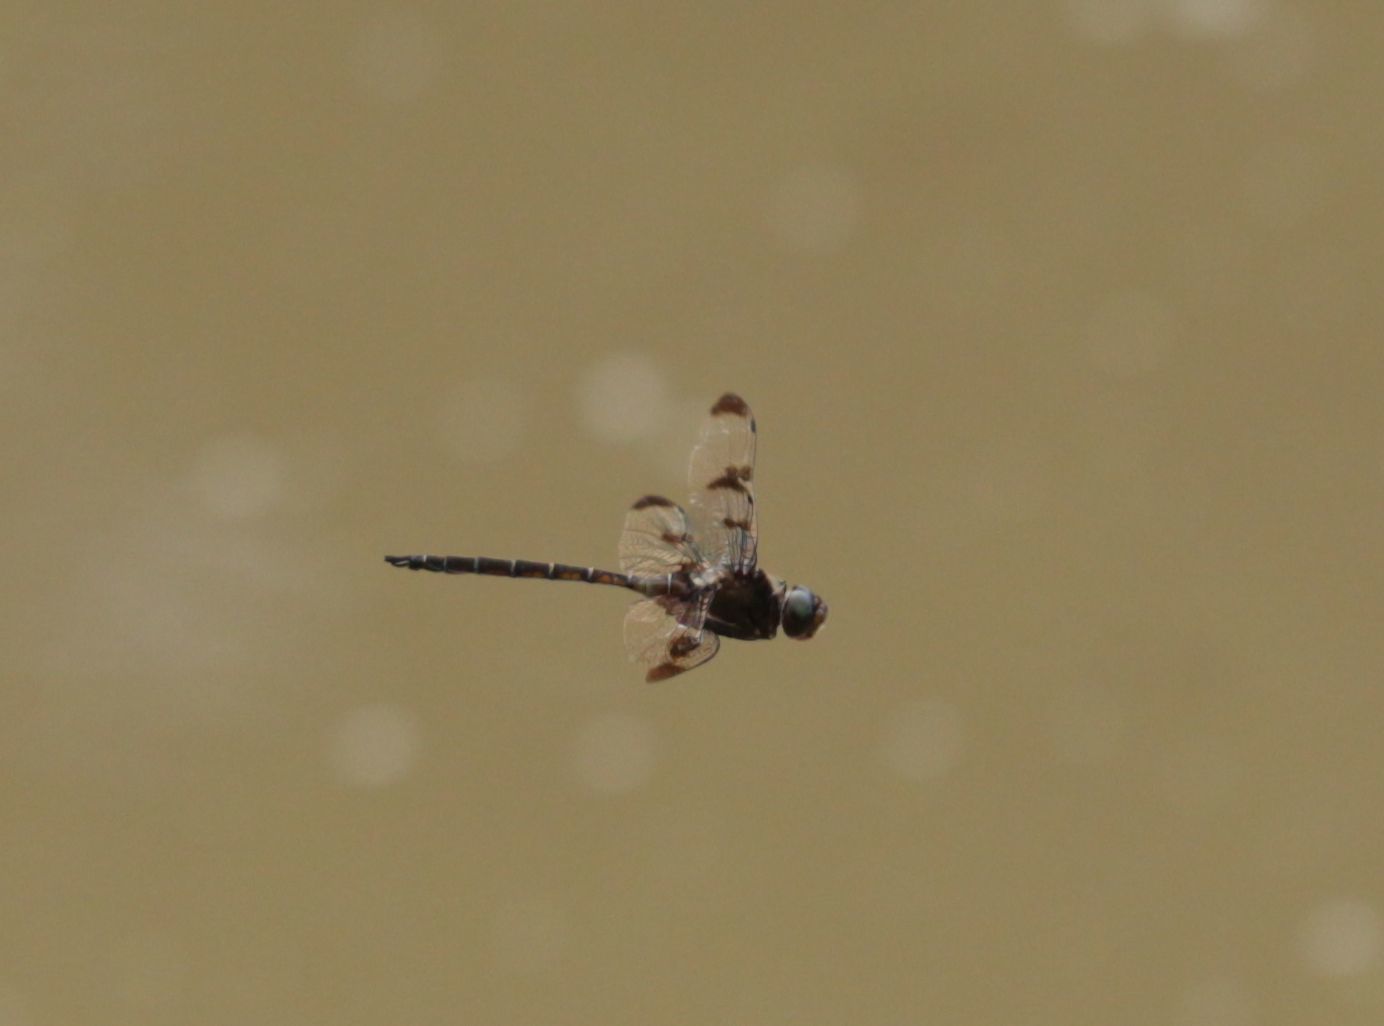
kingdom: Animalia
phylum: Arthropoda
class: Insecta
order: Odonata
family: Corduliidae
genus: Epitheca
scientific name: Epitheca princeps
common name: Prince baskettail
